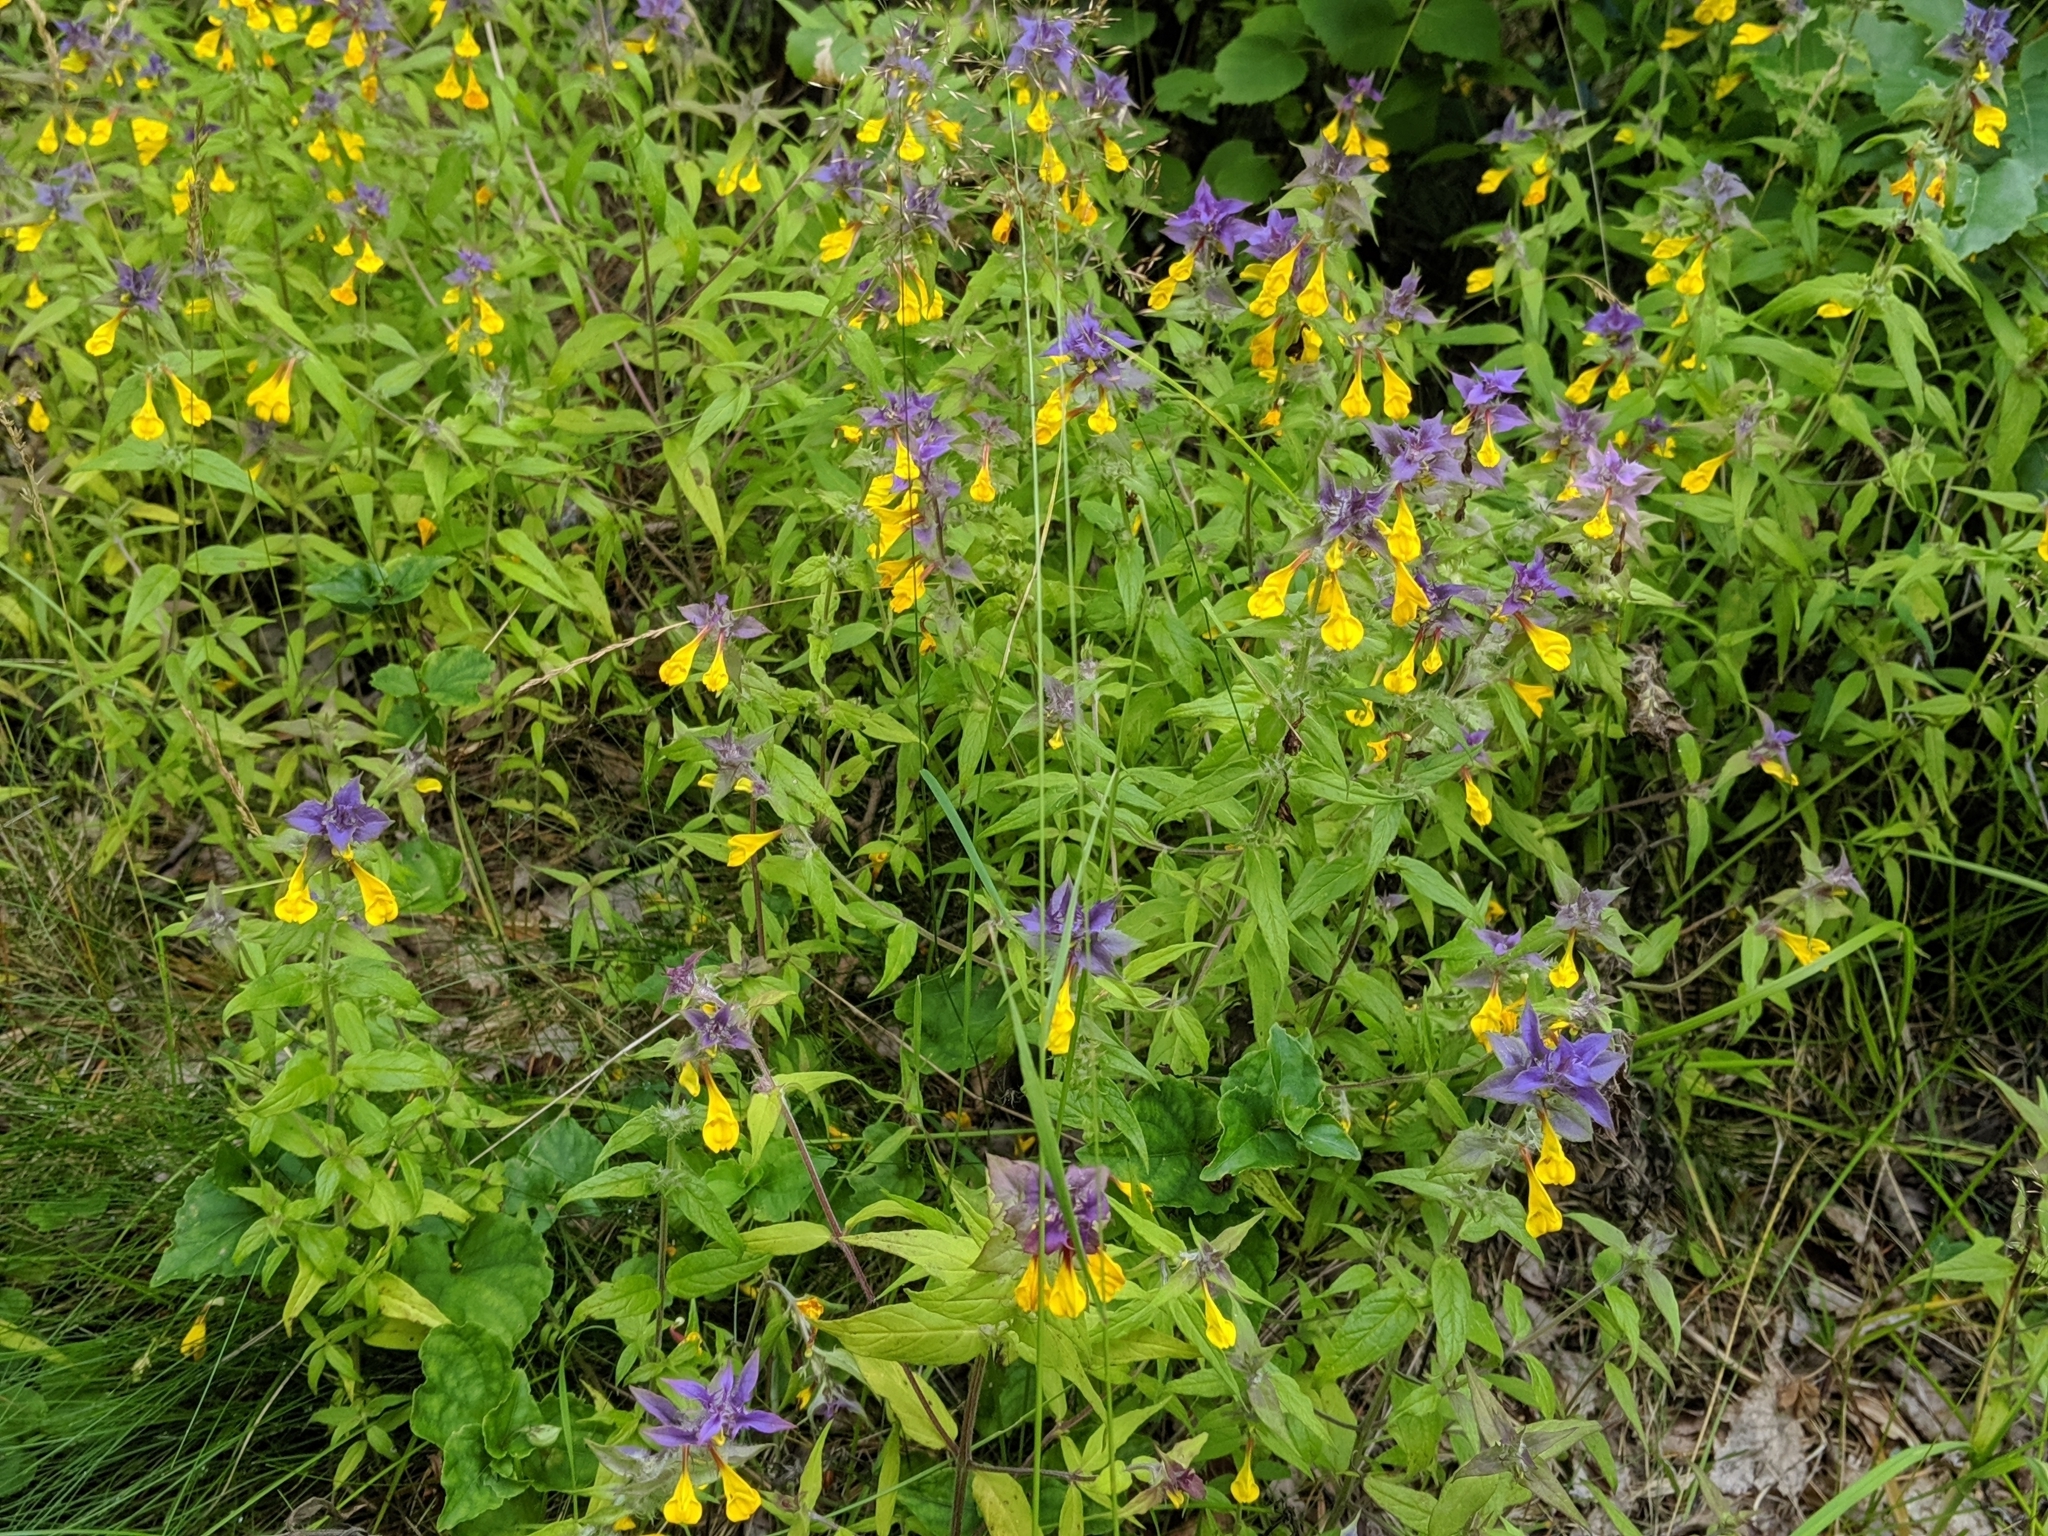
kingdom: Plantae
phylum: Tracheophyta
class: Magnoliopsida
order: Lamiales
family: Orobanchaceae
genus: Melampyrum
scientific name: Melampyrum nemorosum
